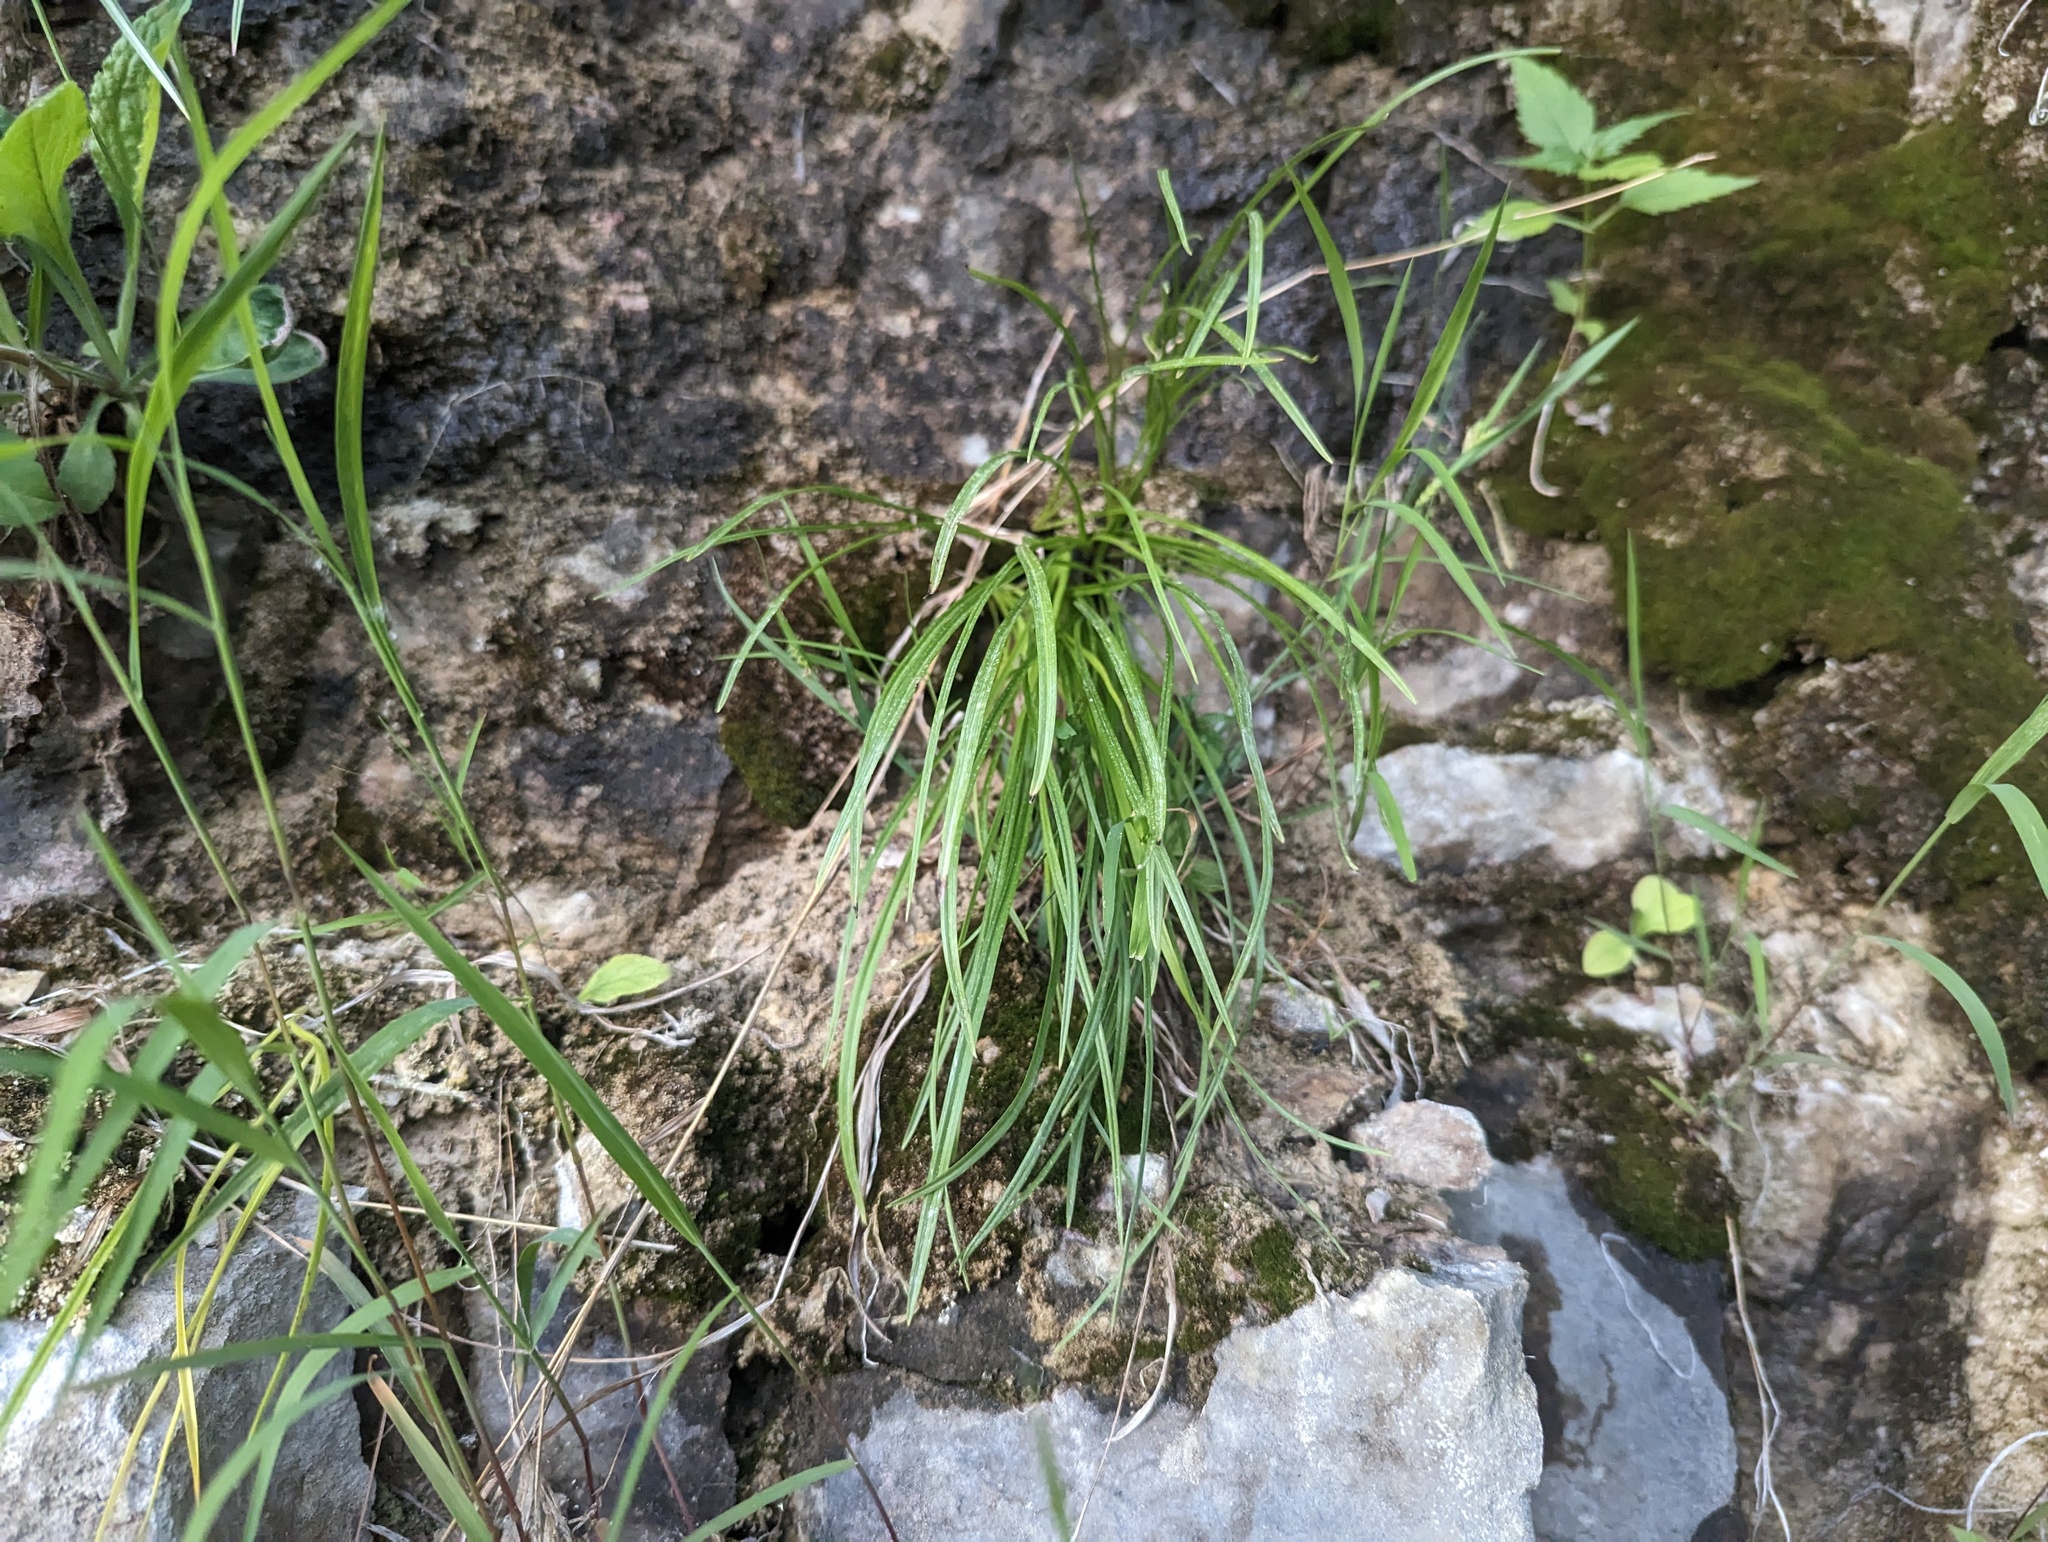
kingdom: Plantae
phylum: Tracheophyta
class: Liliopsida
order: Liliales
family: Melanthiaceae
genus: Anticlea
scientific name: Anticlea elegans
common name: Mountain death camas
